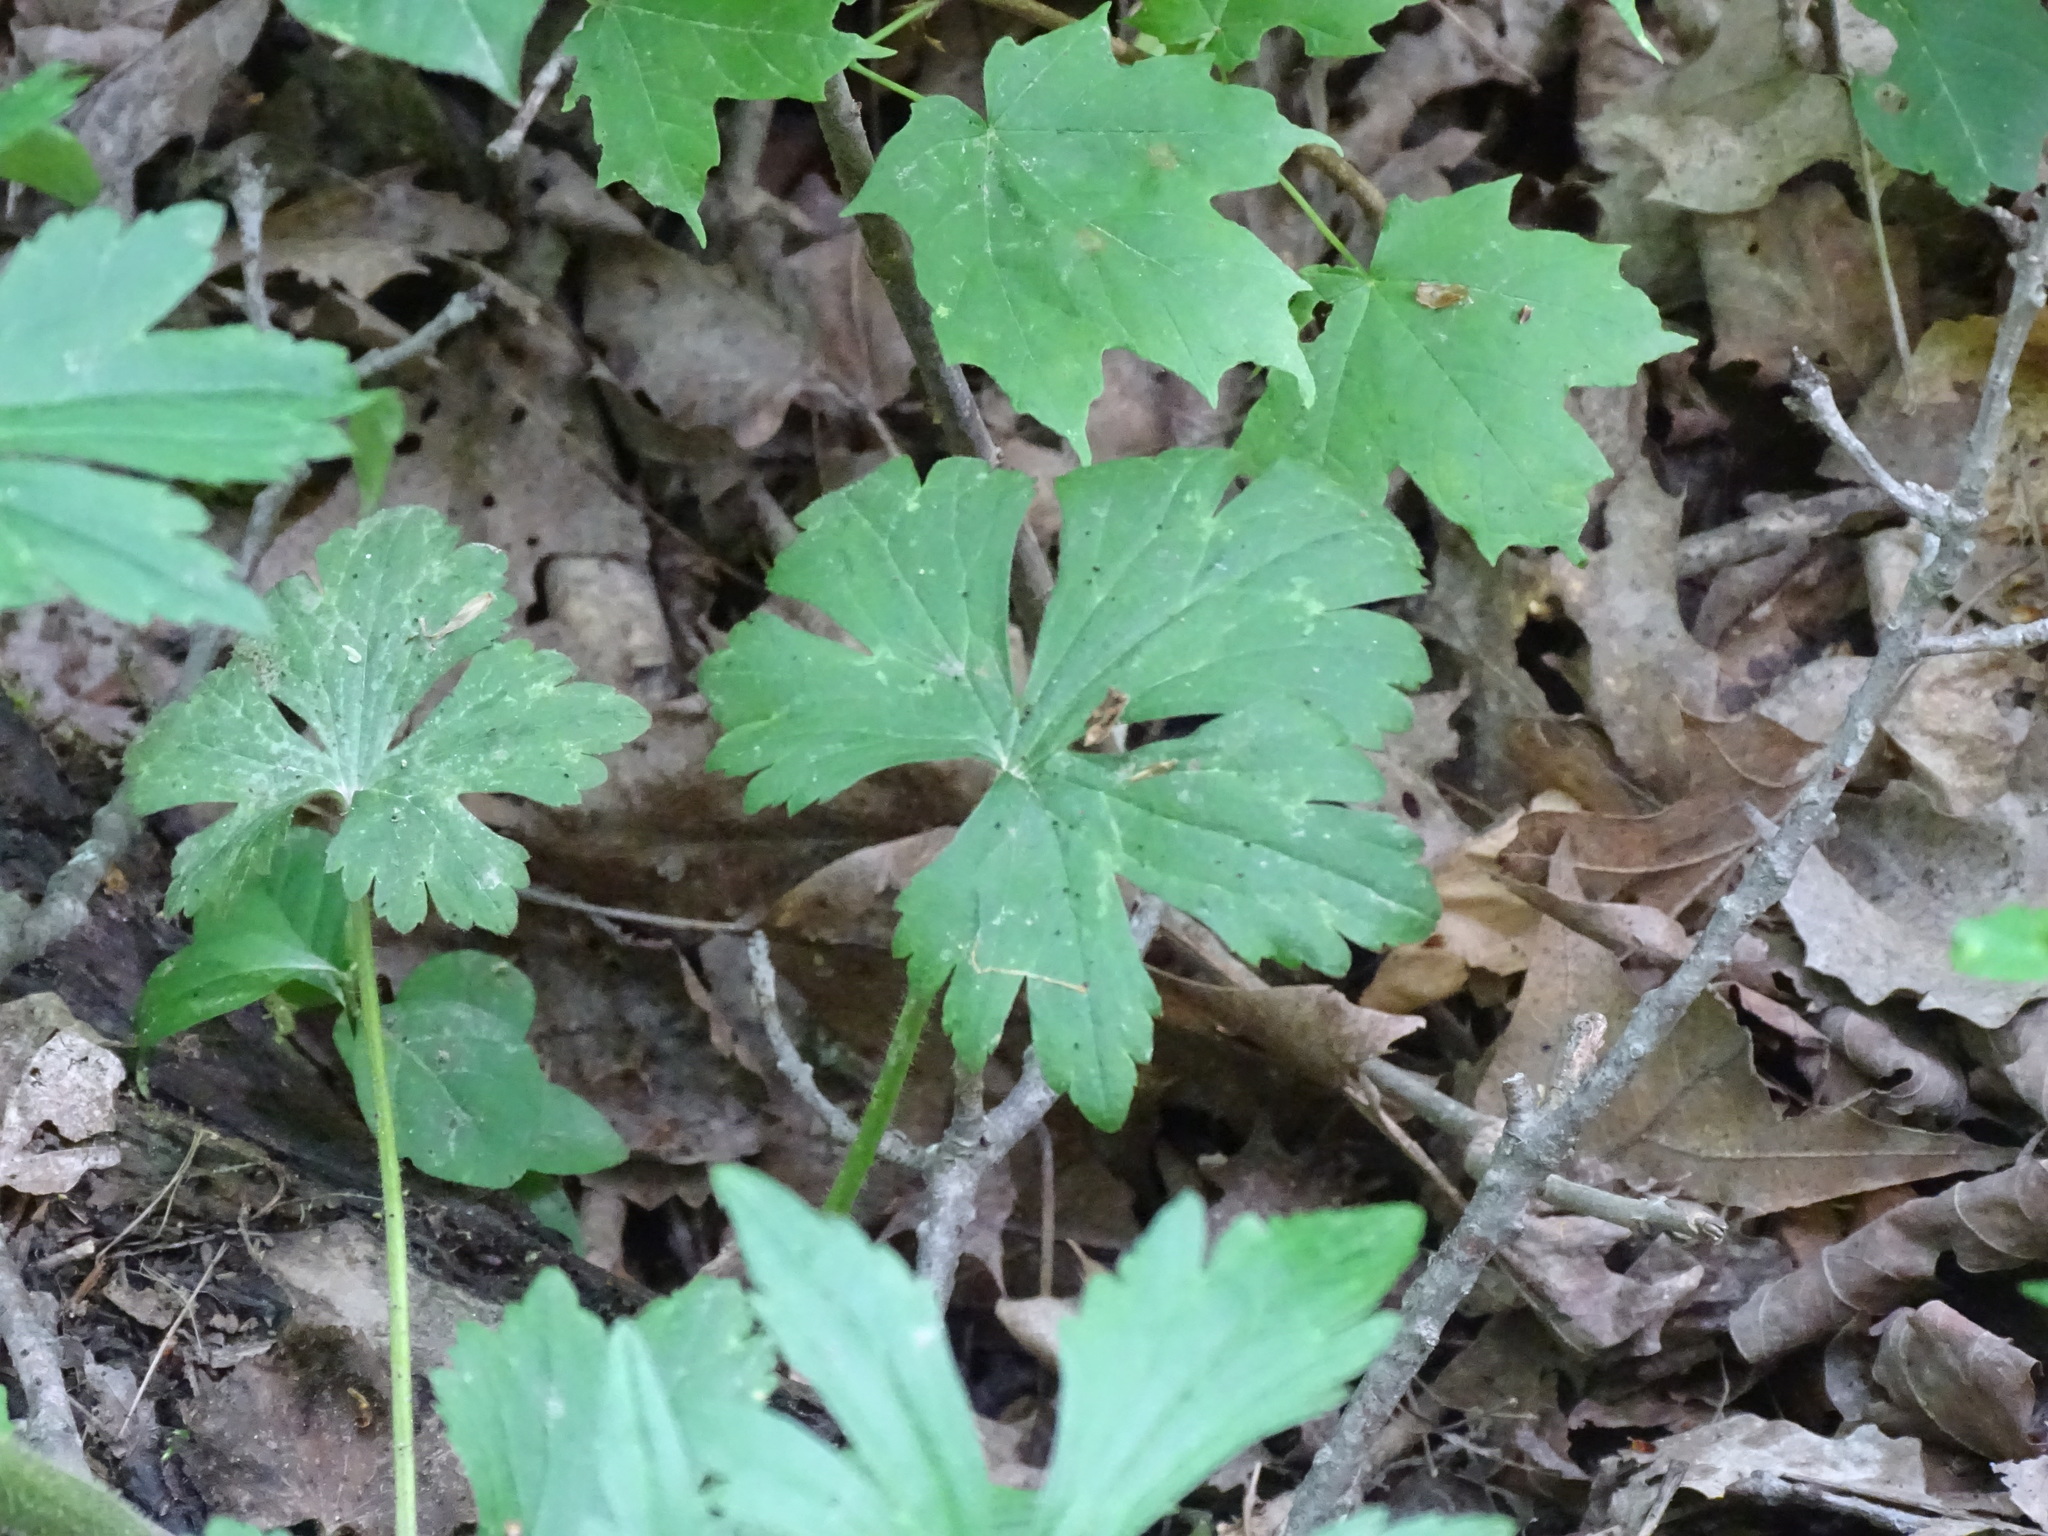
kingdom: Plantae
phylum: Tracheophyta
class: Magnoliopsida
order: Ranunculales
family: Ranunculaceae
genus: Ranunculus
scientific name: Ranunculus recurvatus
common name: Blisterwort
